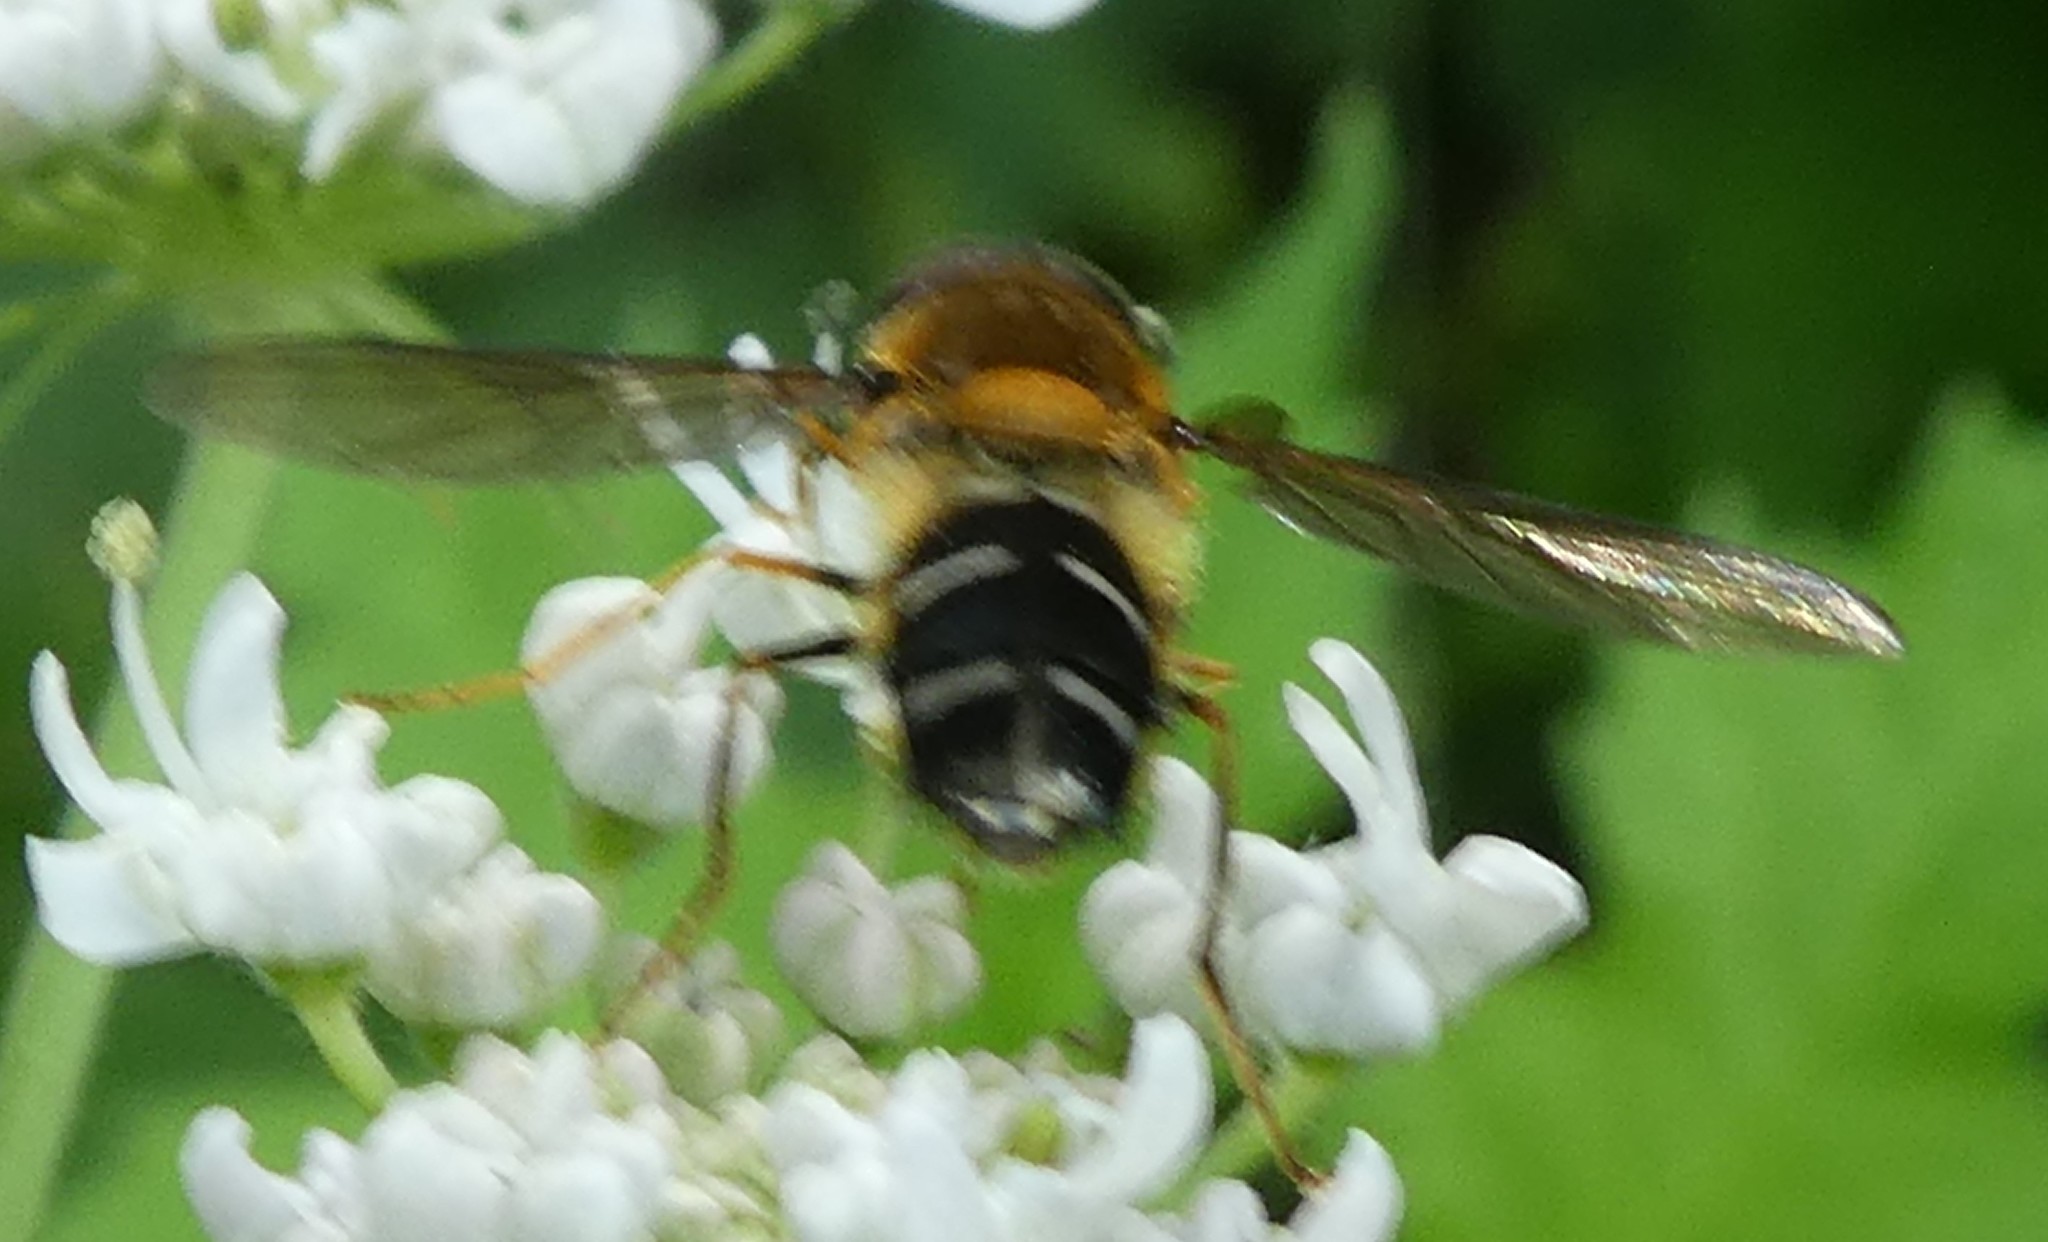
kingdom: Animalia
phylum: Arthropoda
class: Insecta
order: Diptera
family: Syrphidae
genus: Leucozona
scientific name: Leucozona glaucia
